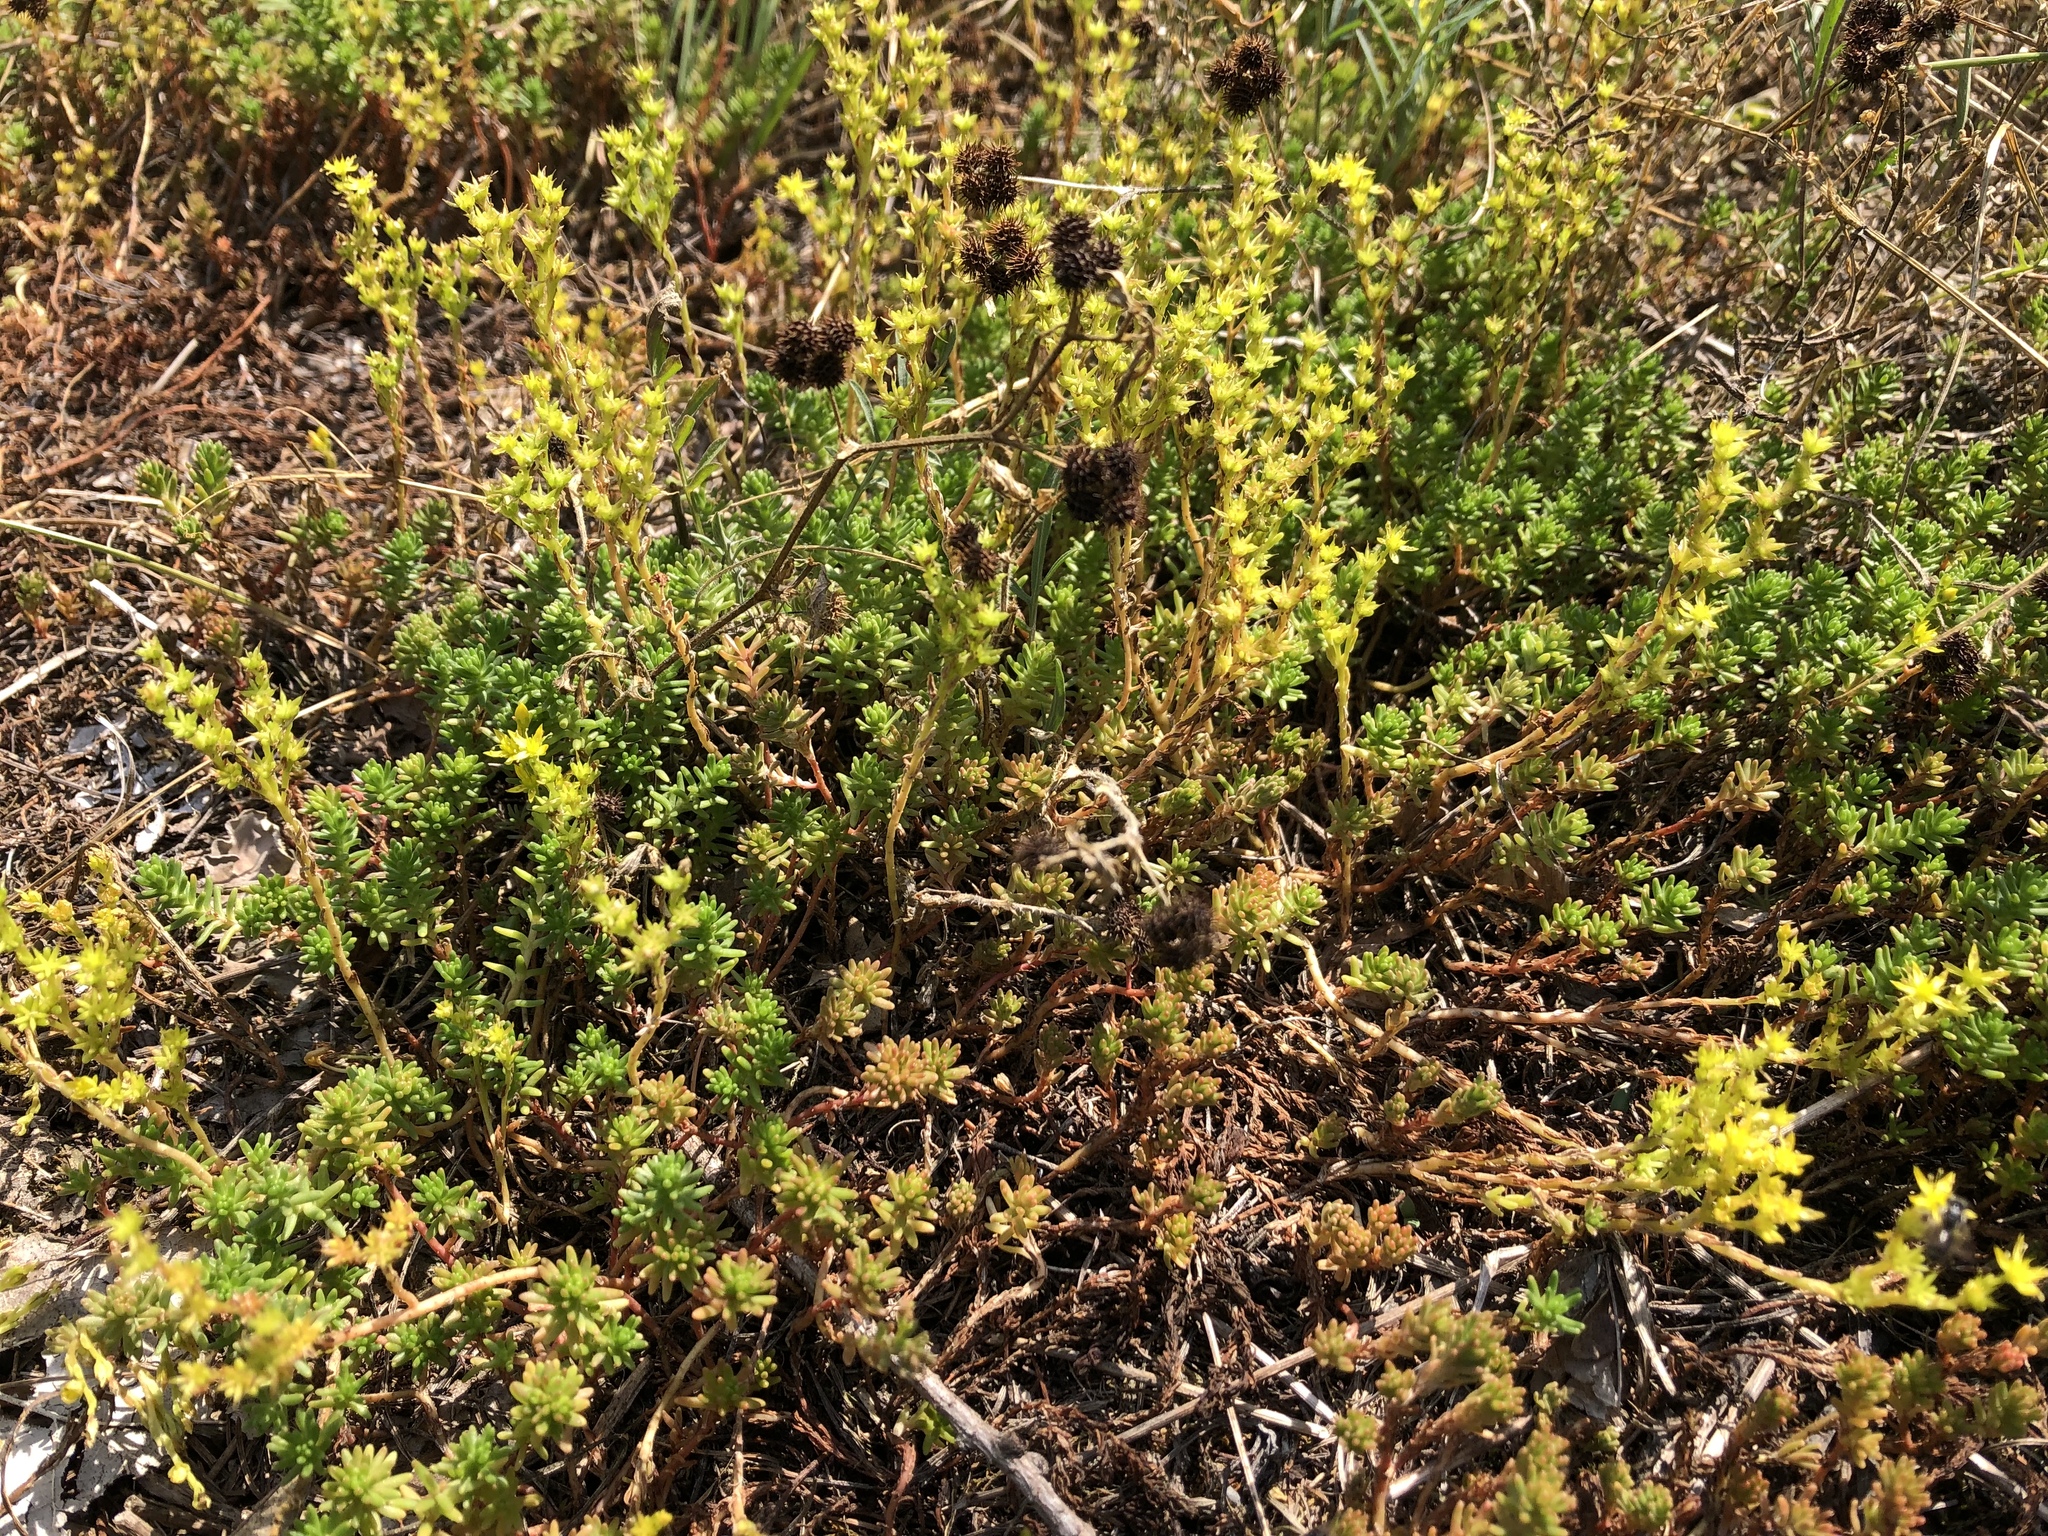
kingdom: Plantae
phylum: Tracheophyta
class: Magnoliopsida
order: Saxifragales
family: Crassulaceae
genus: Sedum
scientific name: Sedum sexangulare
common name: Tasteless stonecrop
